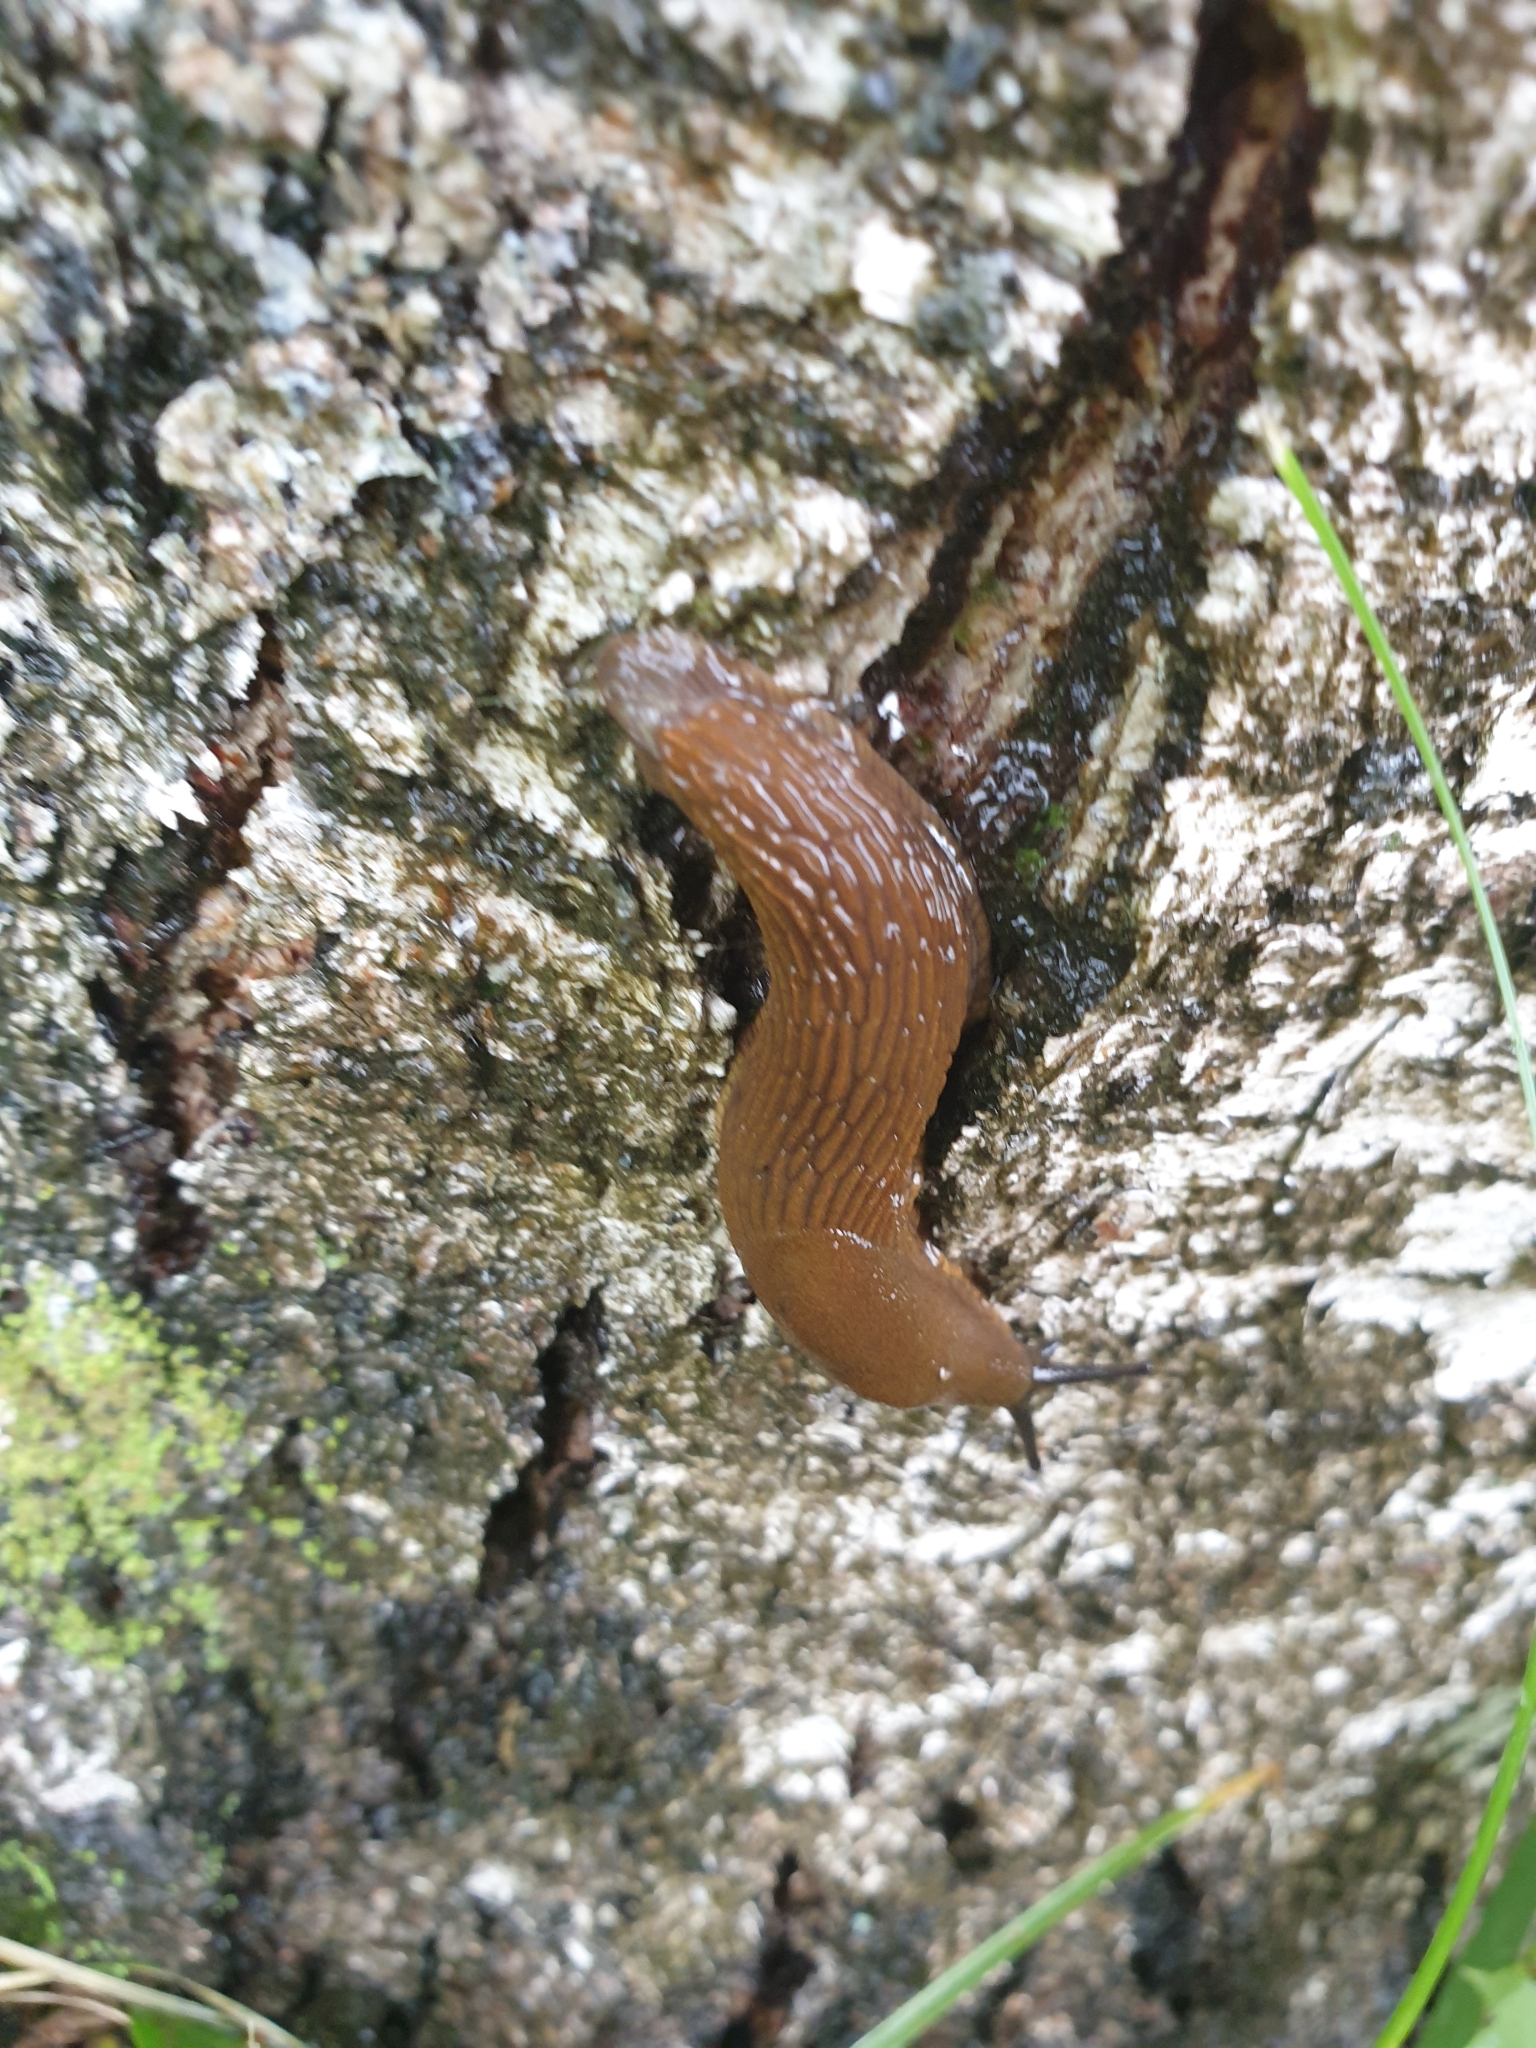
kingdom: Animalia
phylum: Mollusca
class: Gastropoda
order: Stylommatophora
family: Arionidae
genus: Arion
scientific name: Arion vulgaris
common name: Lusitanian slug
